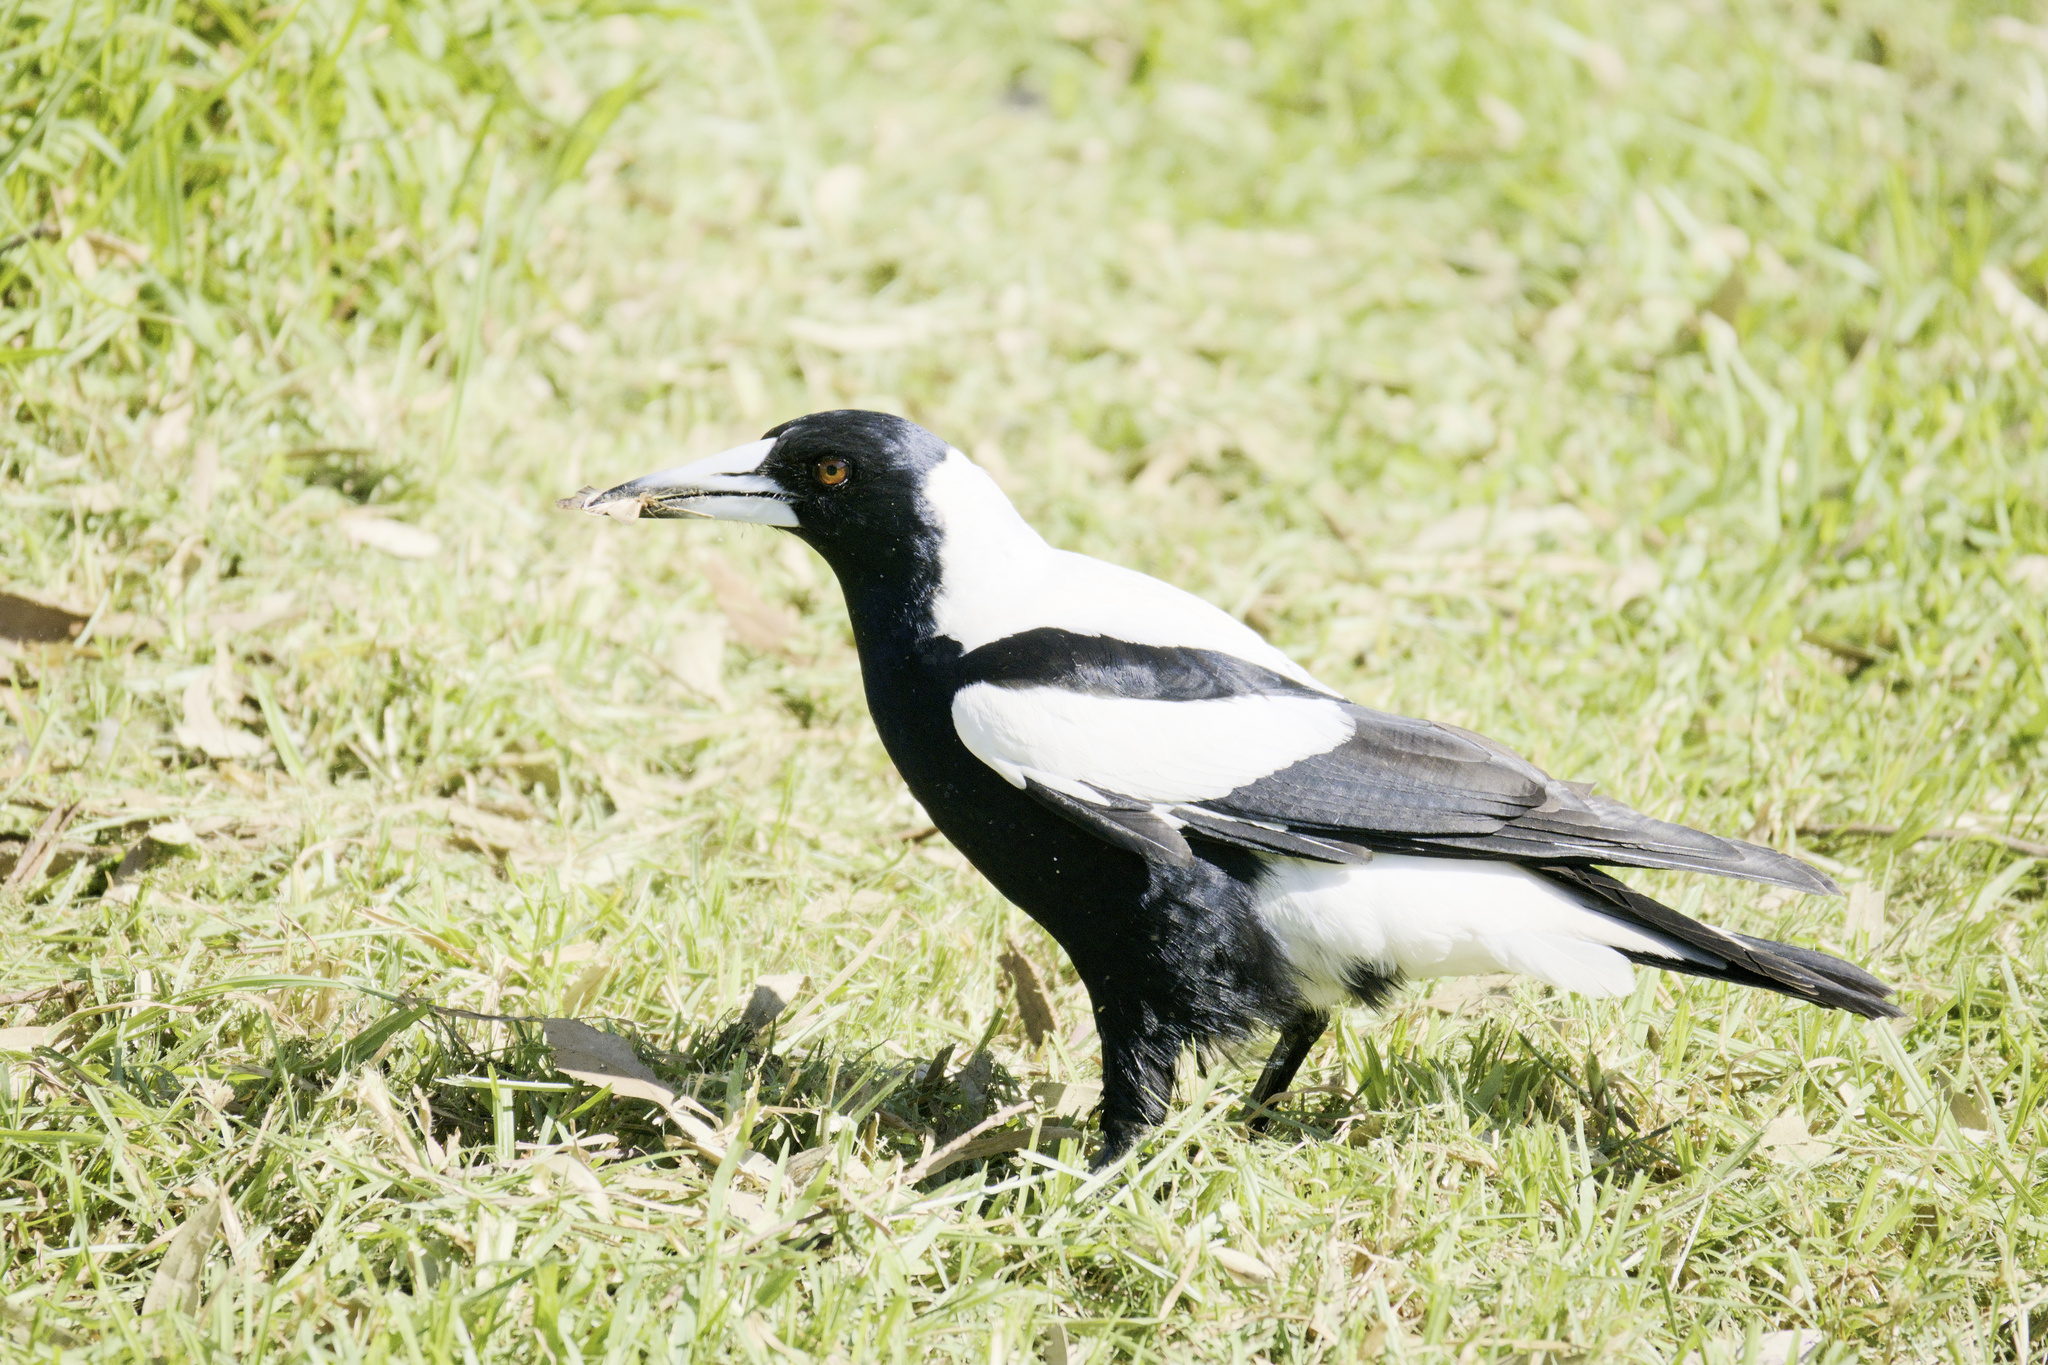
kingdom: Animalia
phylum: Chordata
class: Aves
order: Passeriformes
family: Cracticidae
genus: Gymnorhina
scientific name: Gymnorhina tibicen
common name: Australian magpie
